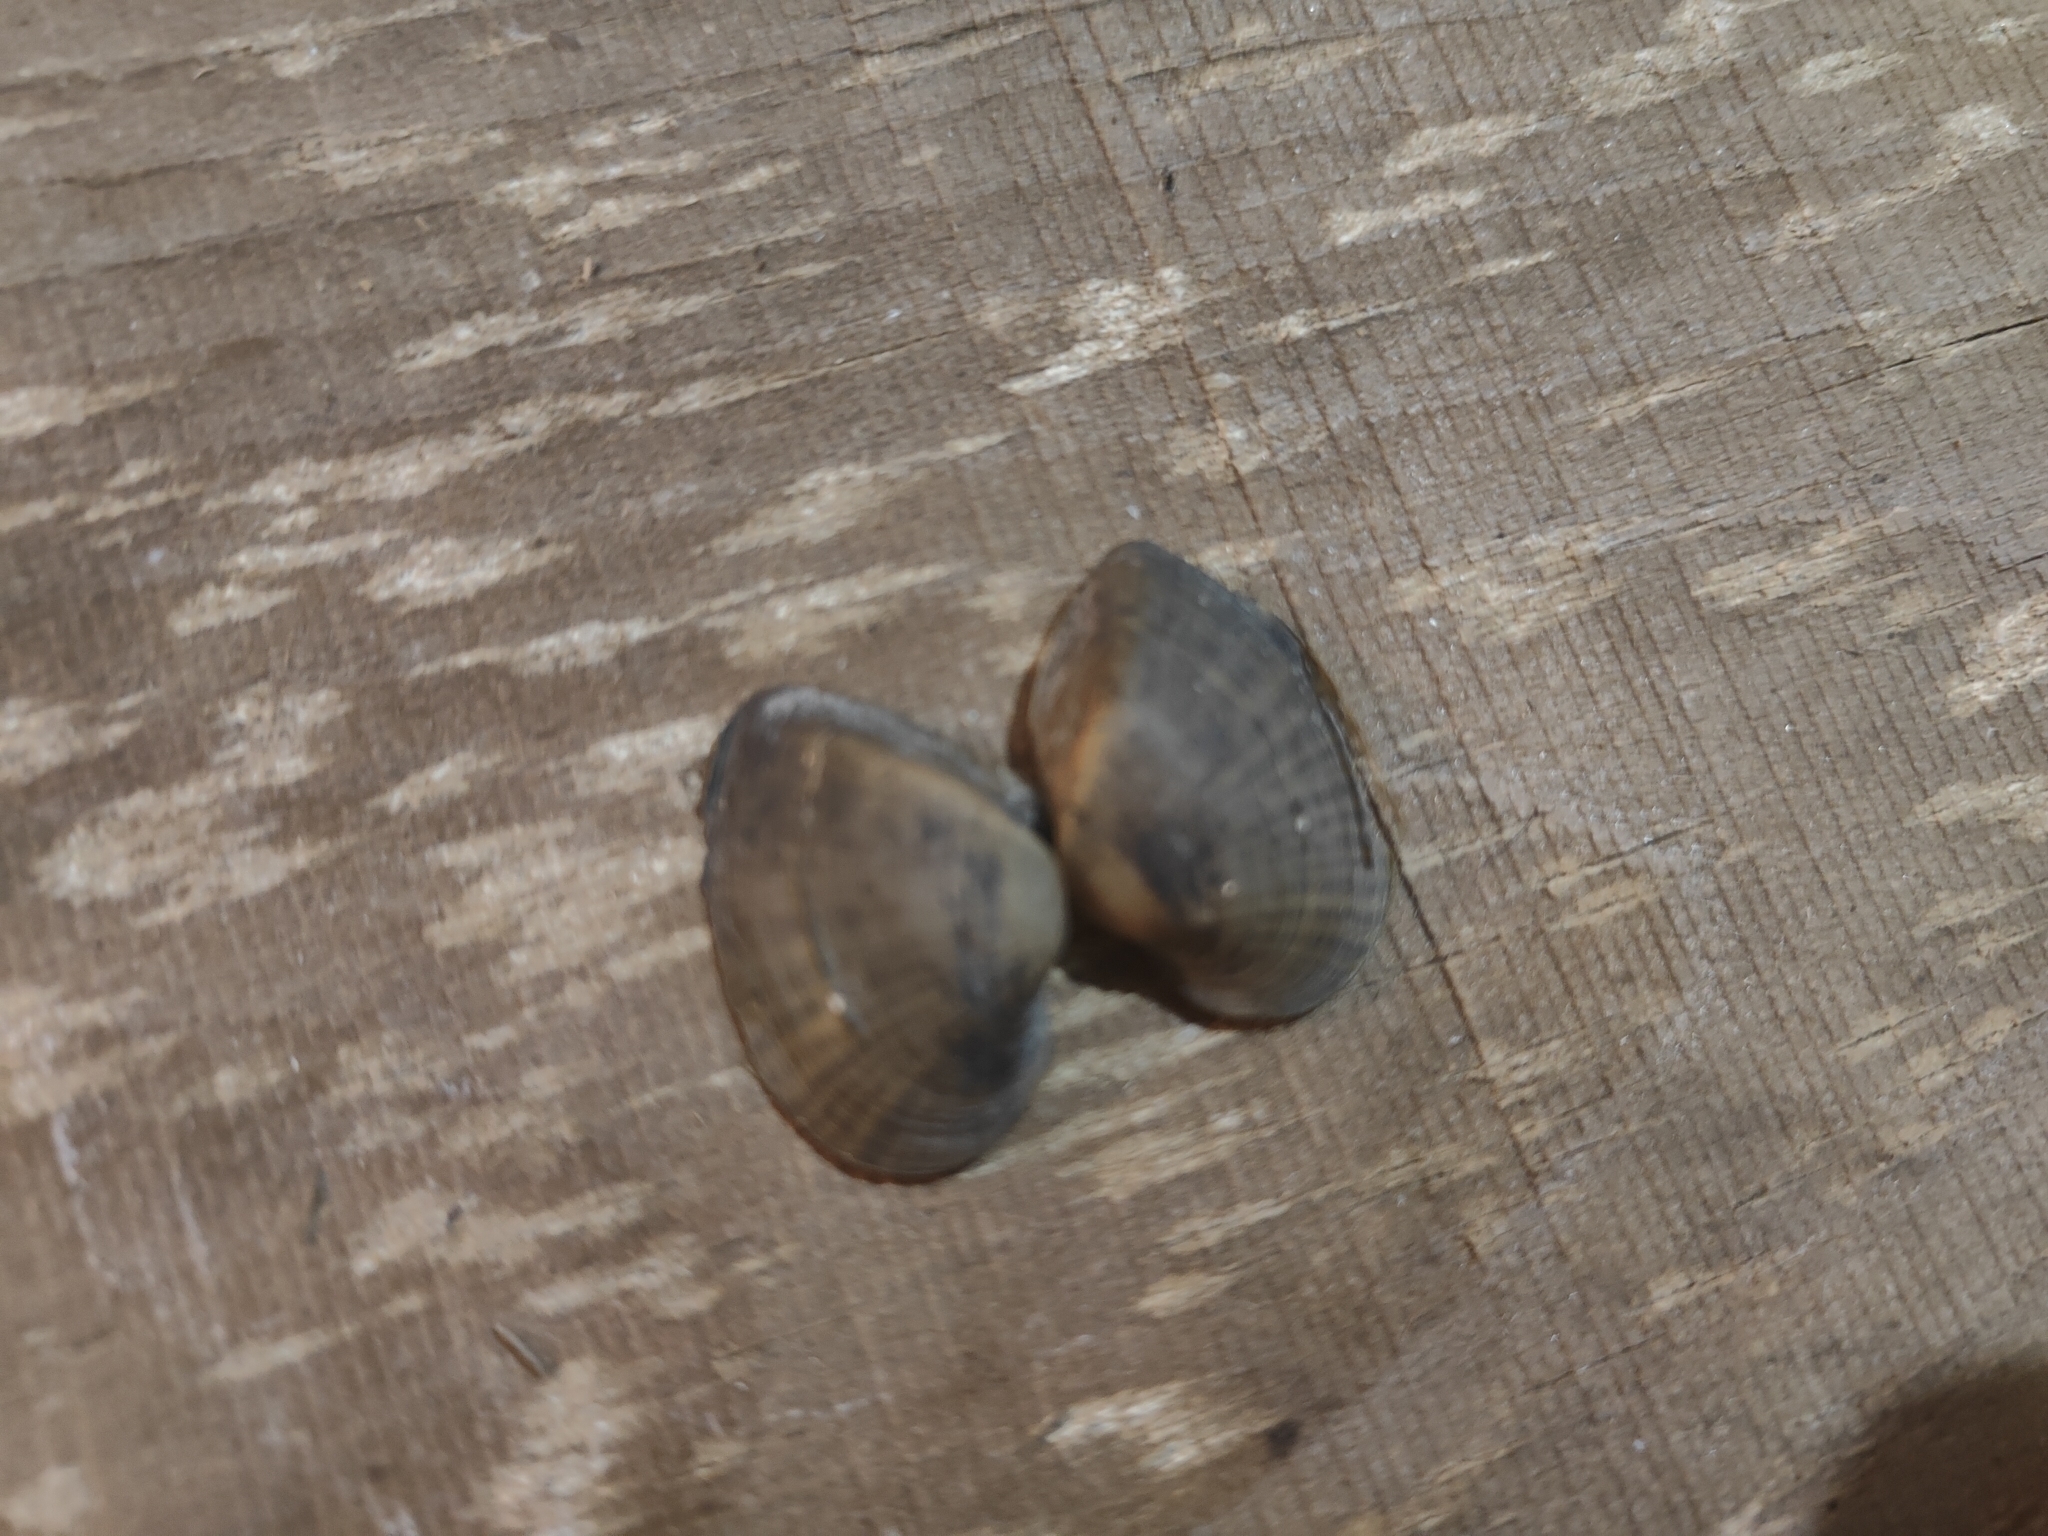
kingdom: Animalia
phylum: Mollusca
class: Bivalvia
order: Unionida
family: Unionidae
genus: Truncilla
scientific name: Truncilla truncata
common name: Deertoe
